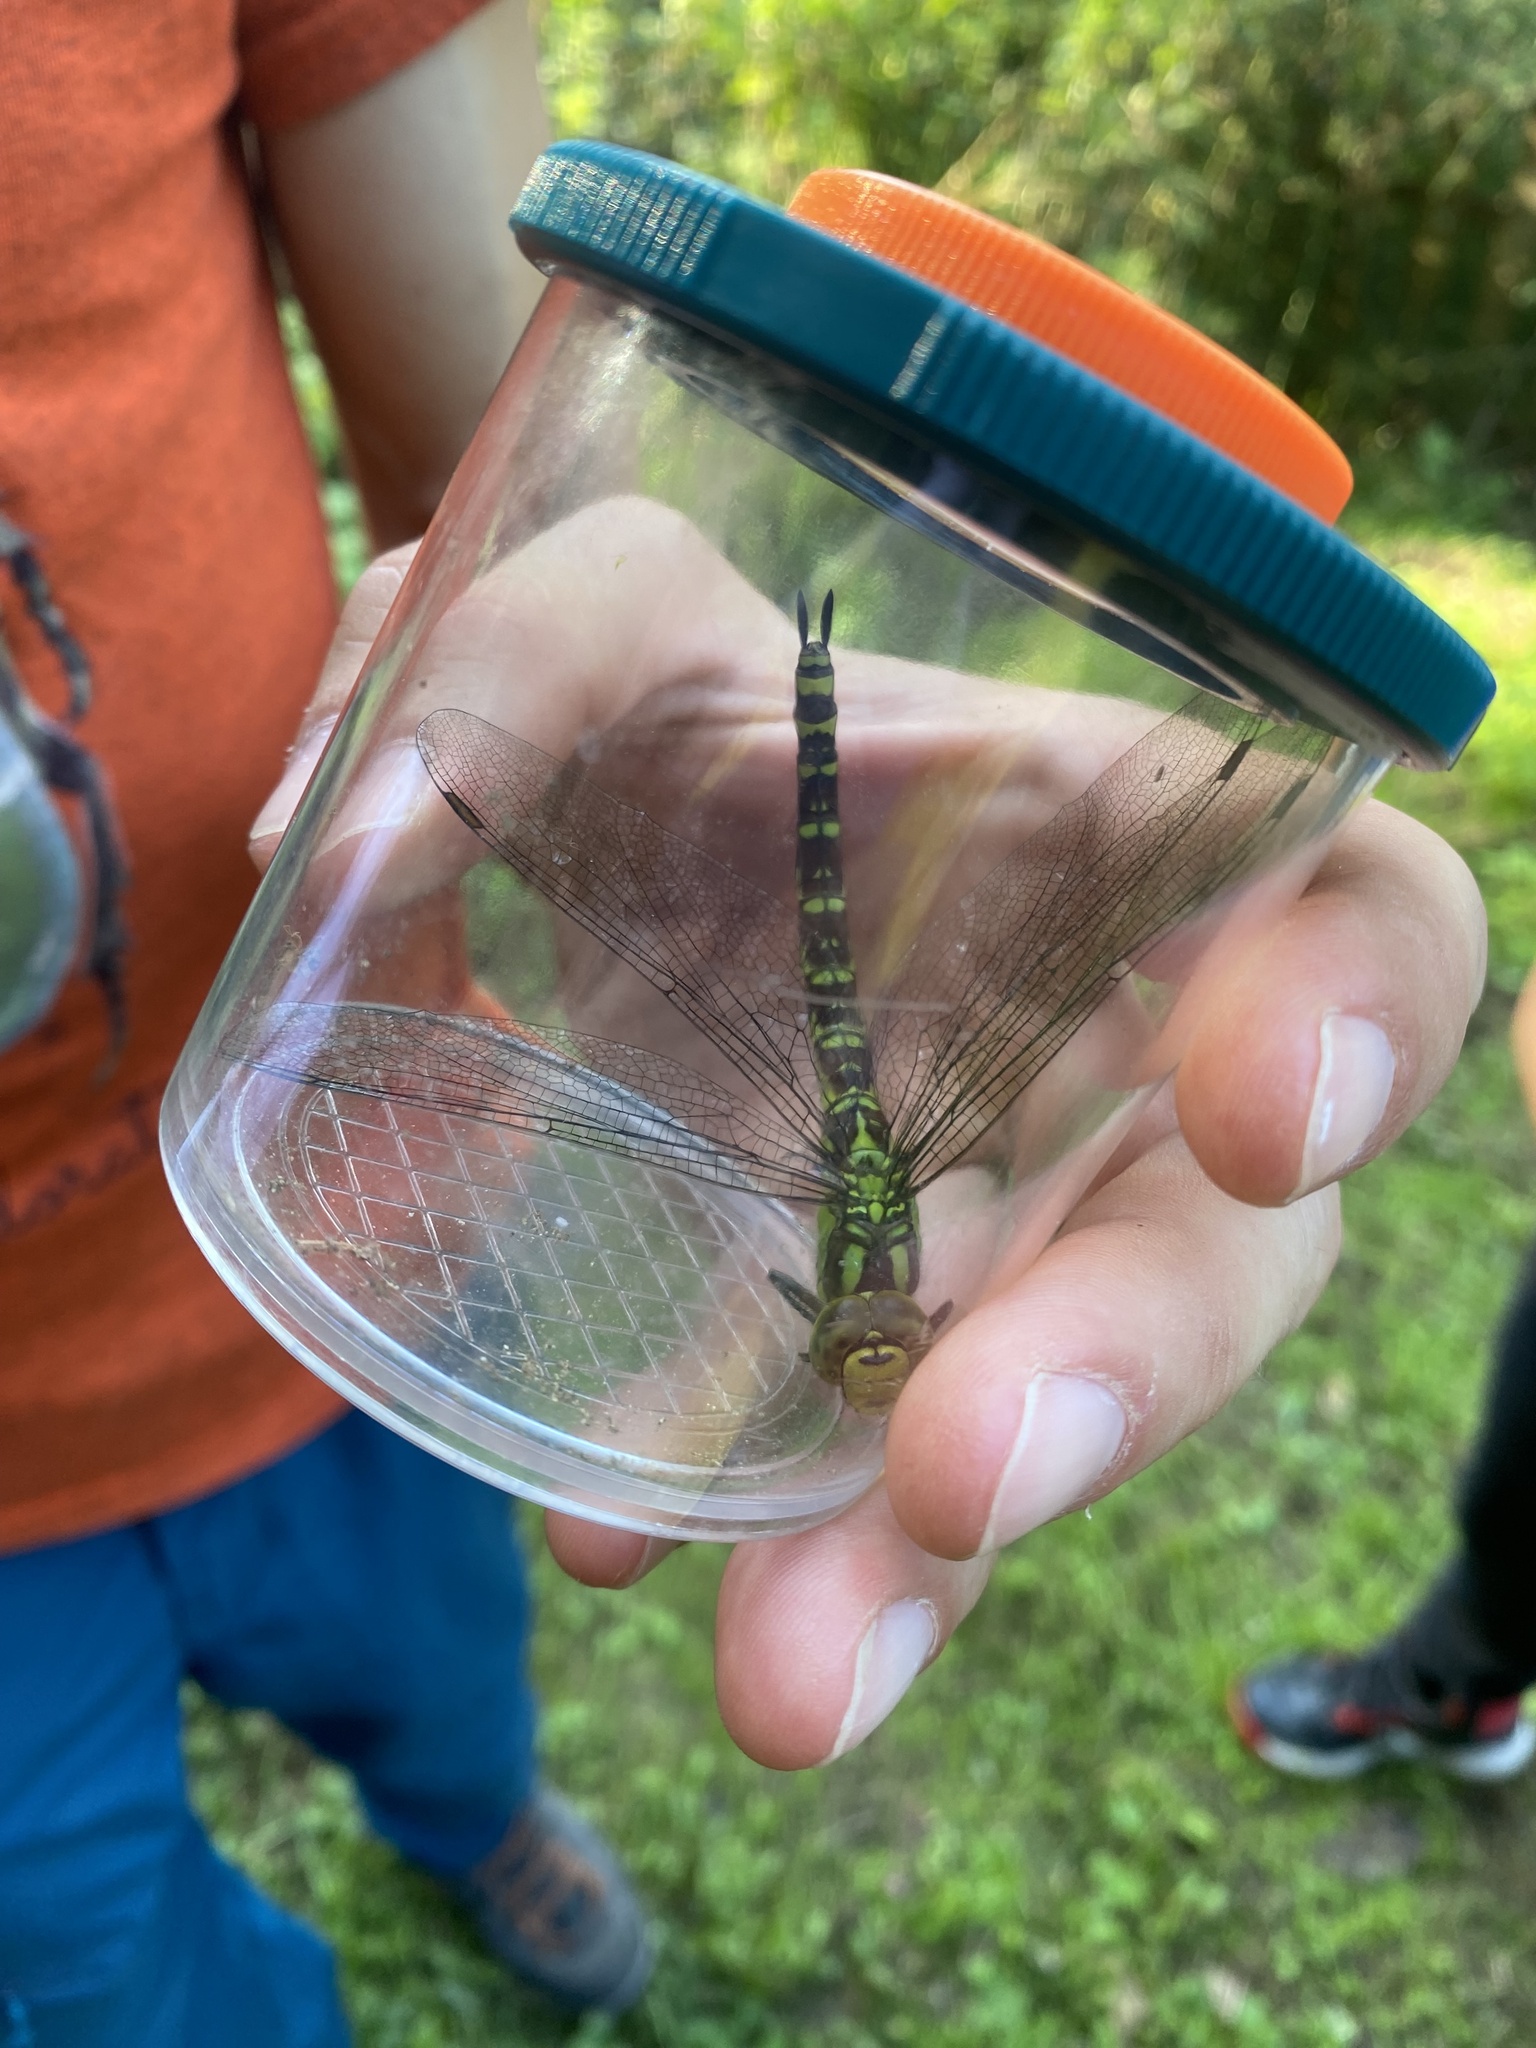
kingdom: Animalia
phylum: Arthropoda
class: Insecta
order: Odonata
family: Aeshnidae
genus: Aeshna
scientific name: Aeshna cyanea
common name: Southern hawker
